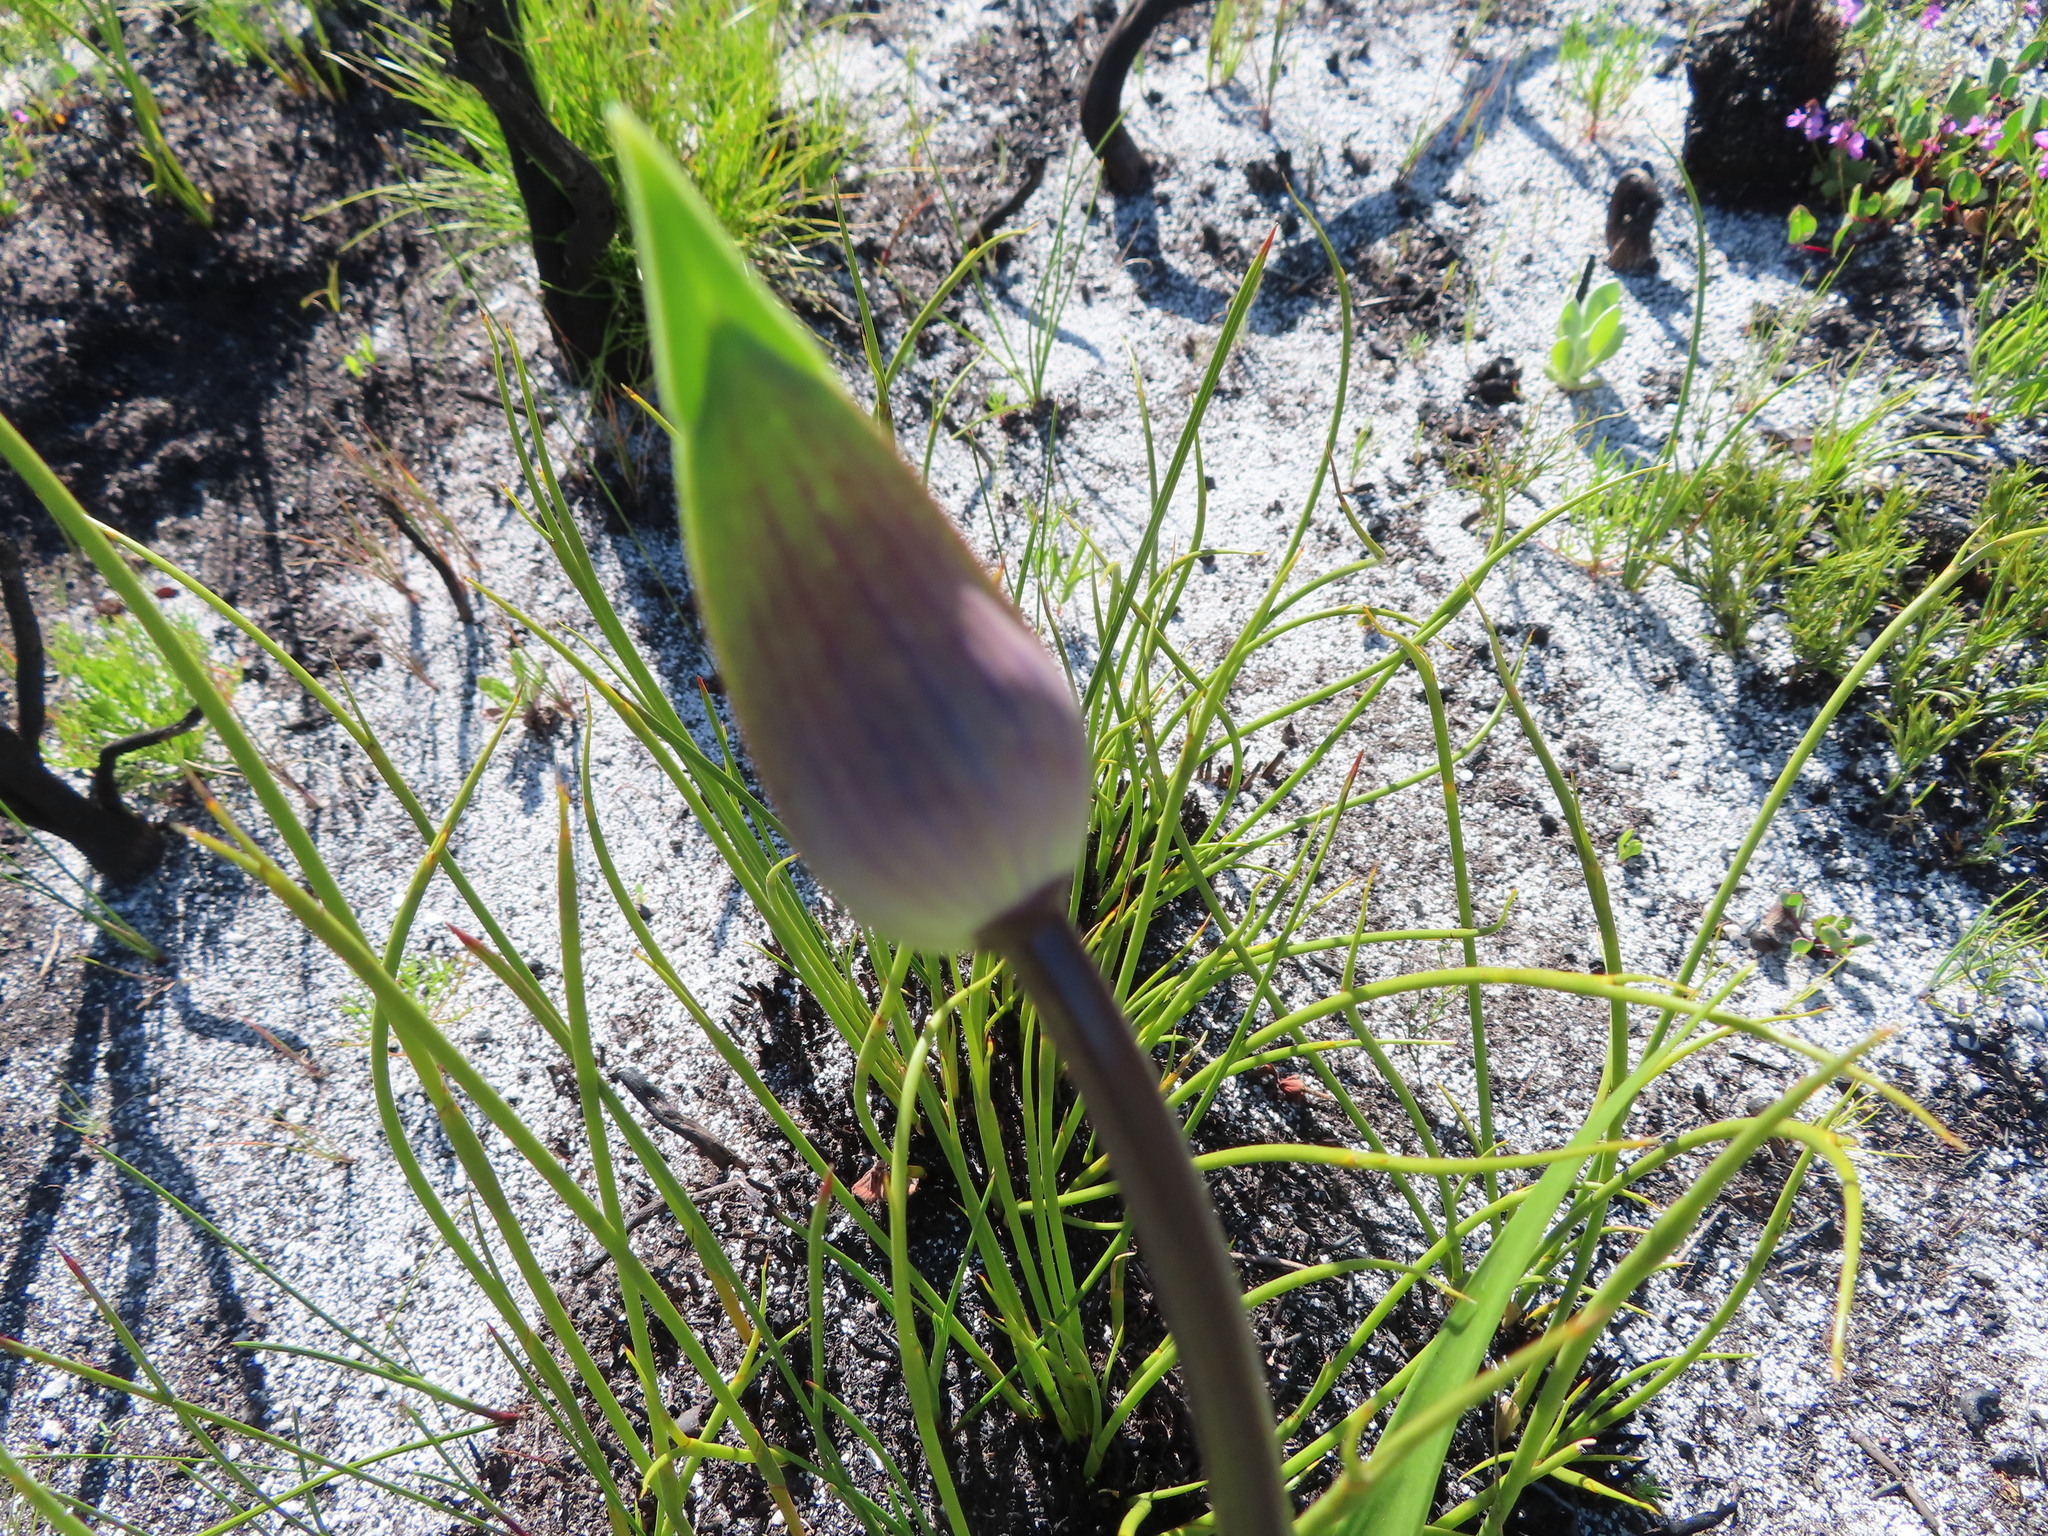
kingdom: Plantae
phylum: Tracheophyta
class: Liliopsida
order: Asparagales
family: Amaryllidaceae
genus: Agapanthus
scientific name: Agapanthus walshii
